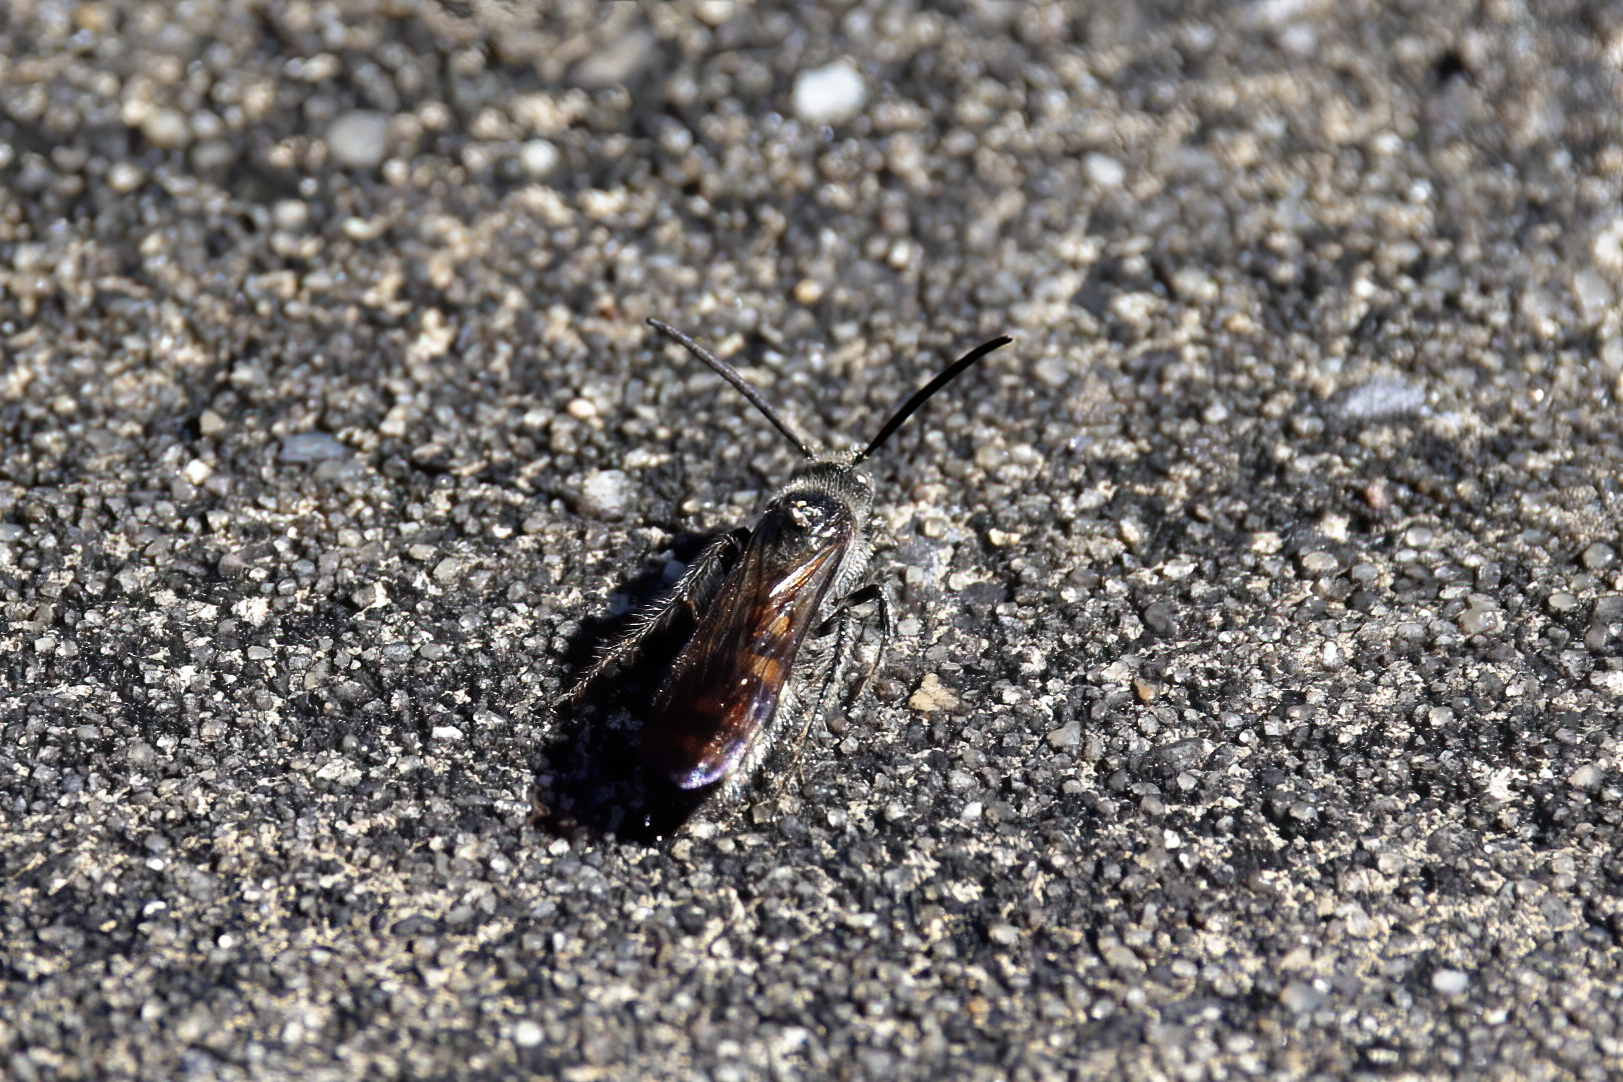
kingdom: Animalia
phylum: Arthropoda
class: Insecta
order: Hymenoptera
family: Scoliidae
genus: Dielis
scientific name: Dielis
